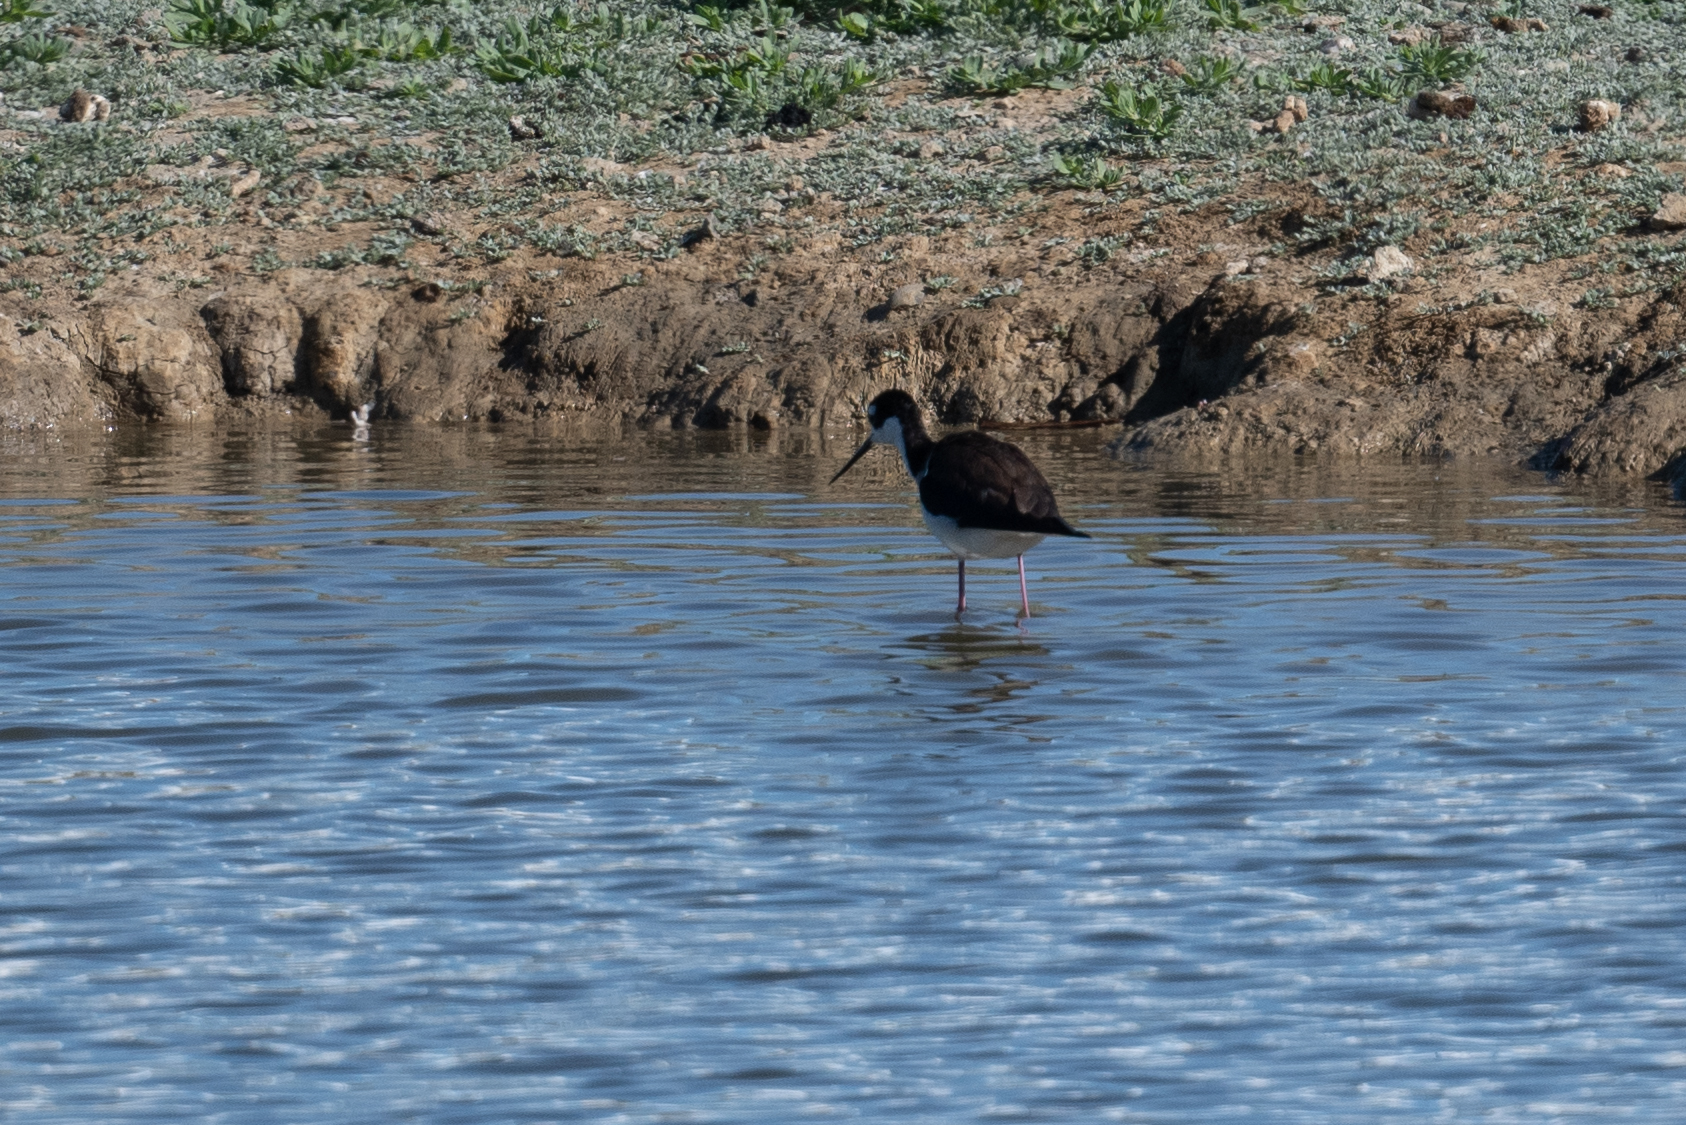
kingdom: Animalia
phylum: Chordata
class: Aves
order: Charadriiformes
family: Recurvirostridae
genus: Himantopus
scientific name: Himantopus mexicanus
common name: Black-necked stilt
